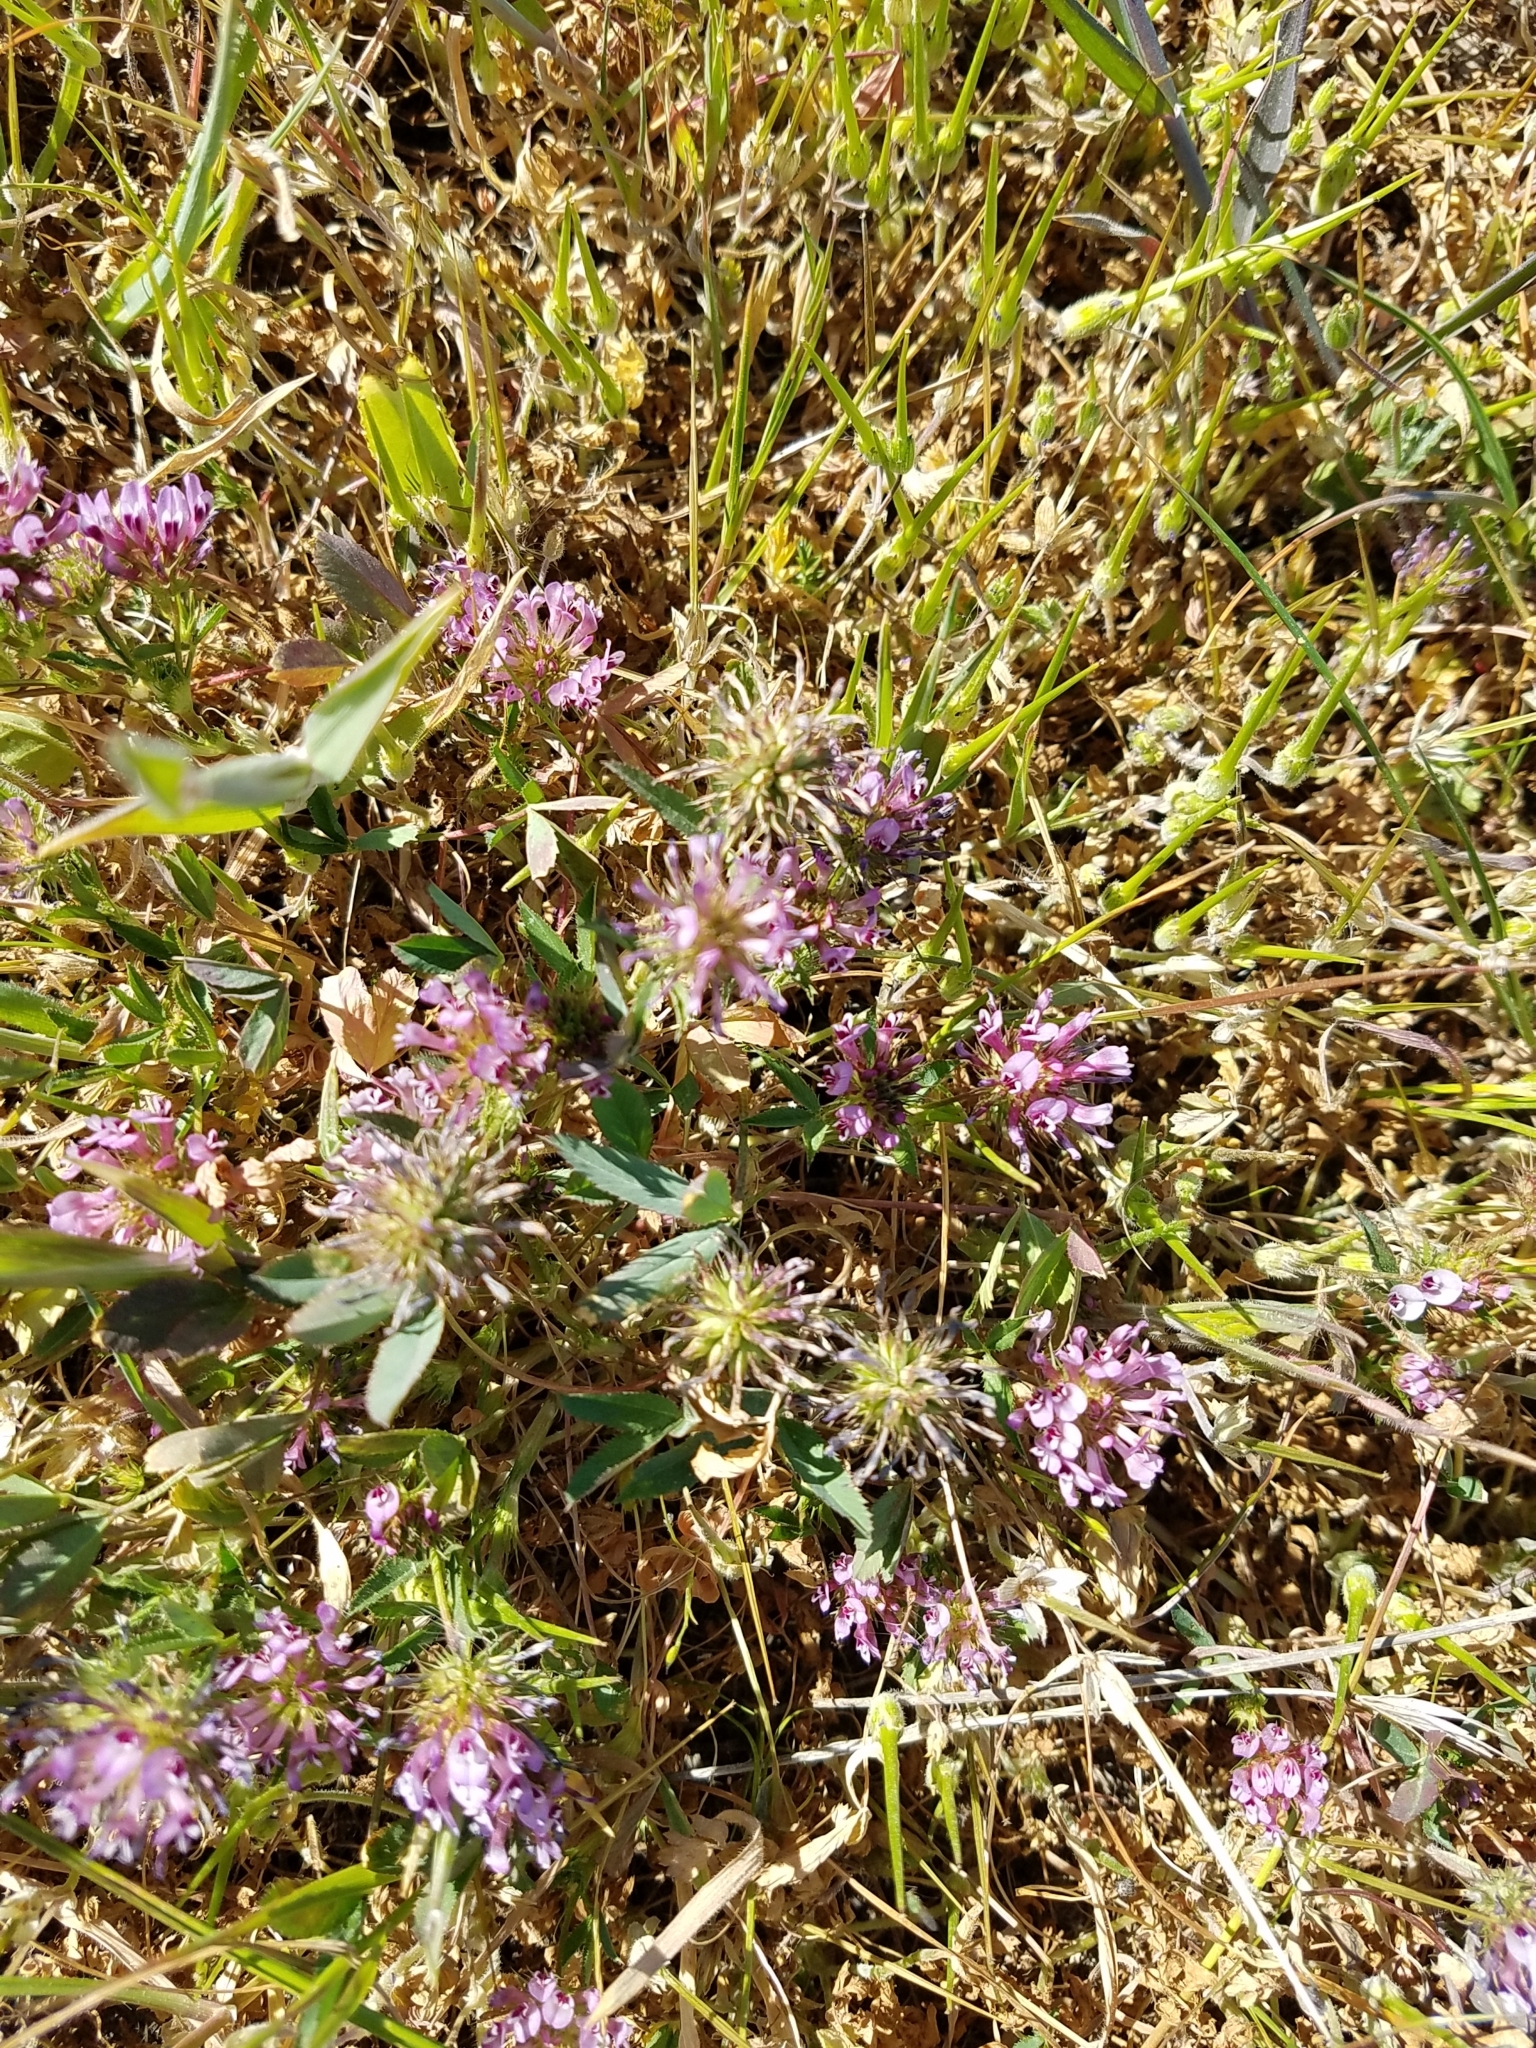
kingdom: Plantae
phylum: Tracheophyta
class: Magnoliopsida
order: Fabales
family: Fabaceae
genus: Trifolium
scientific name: Trifolium willdenovii
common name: Tomcat clover
